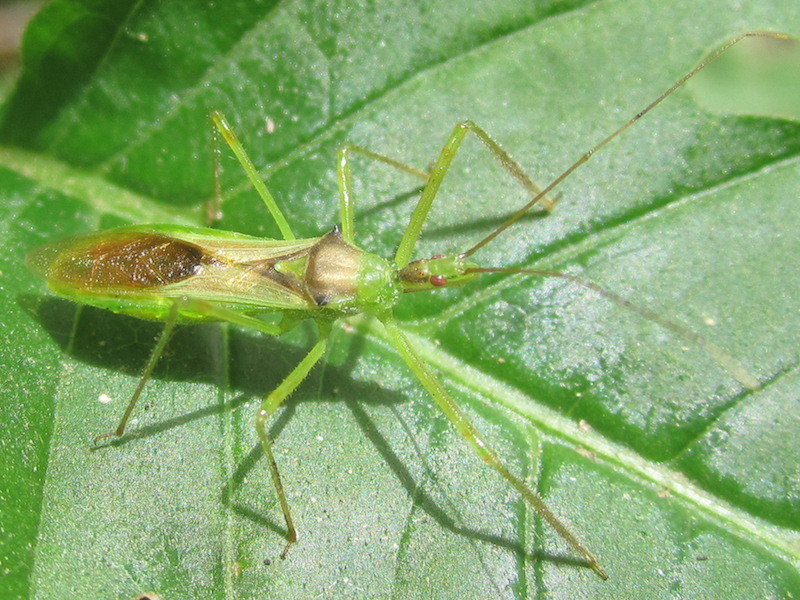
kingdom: Animalia
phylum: Arthropoda
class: Insecta
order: Hemiptera
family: Reduviidae
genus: Zelus
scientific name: Zelus luridus
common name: Pale green assassin bug
